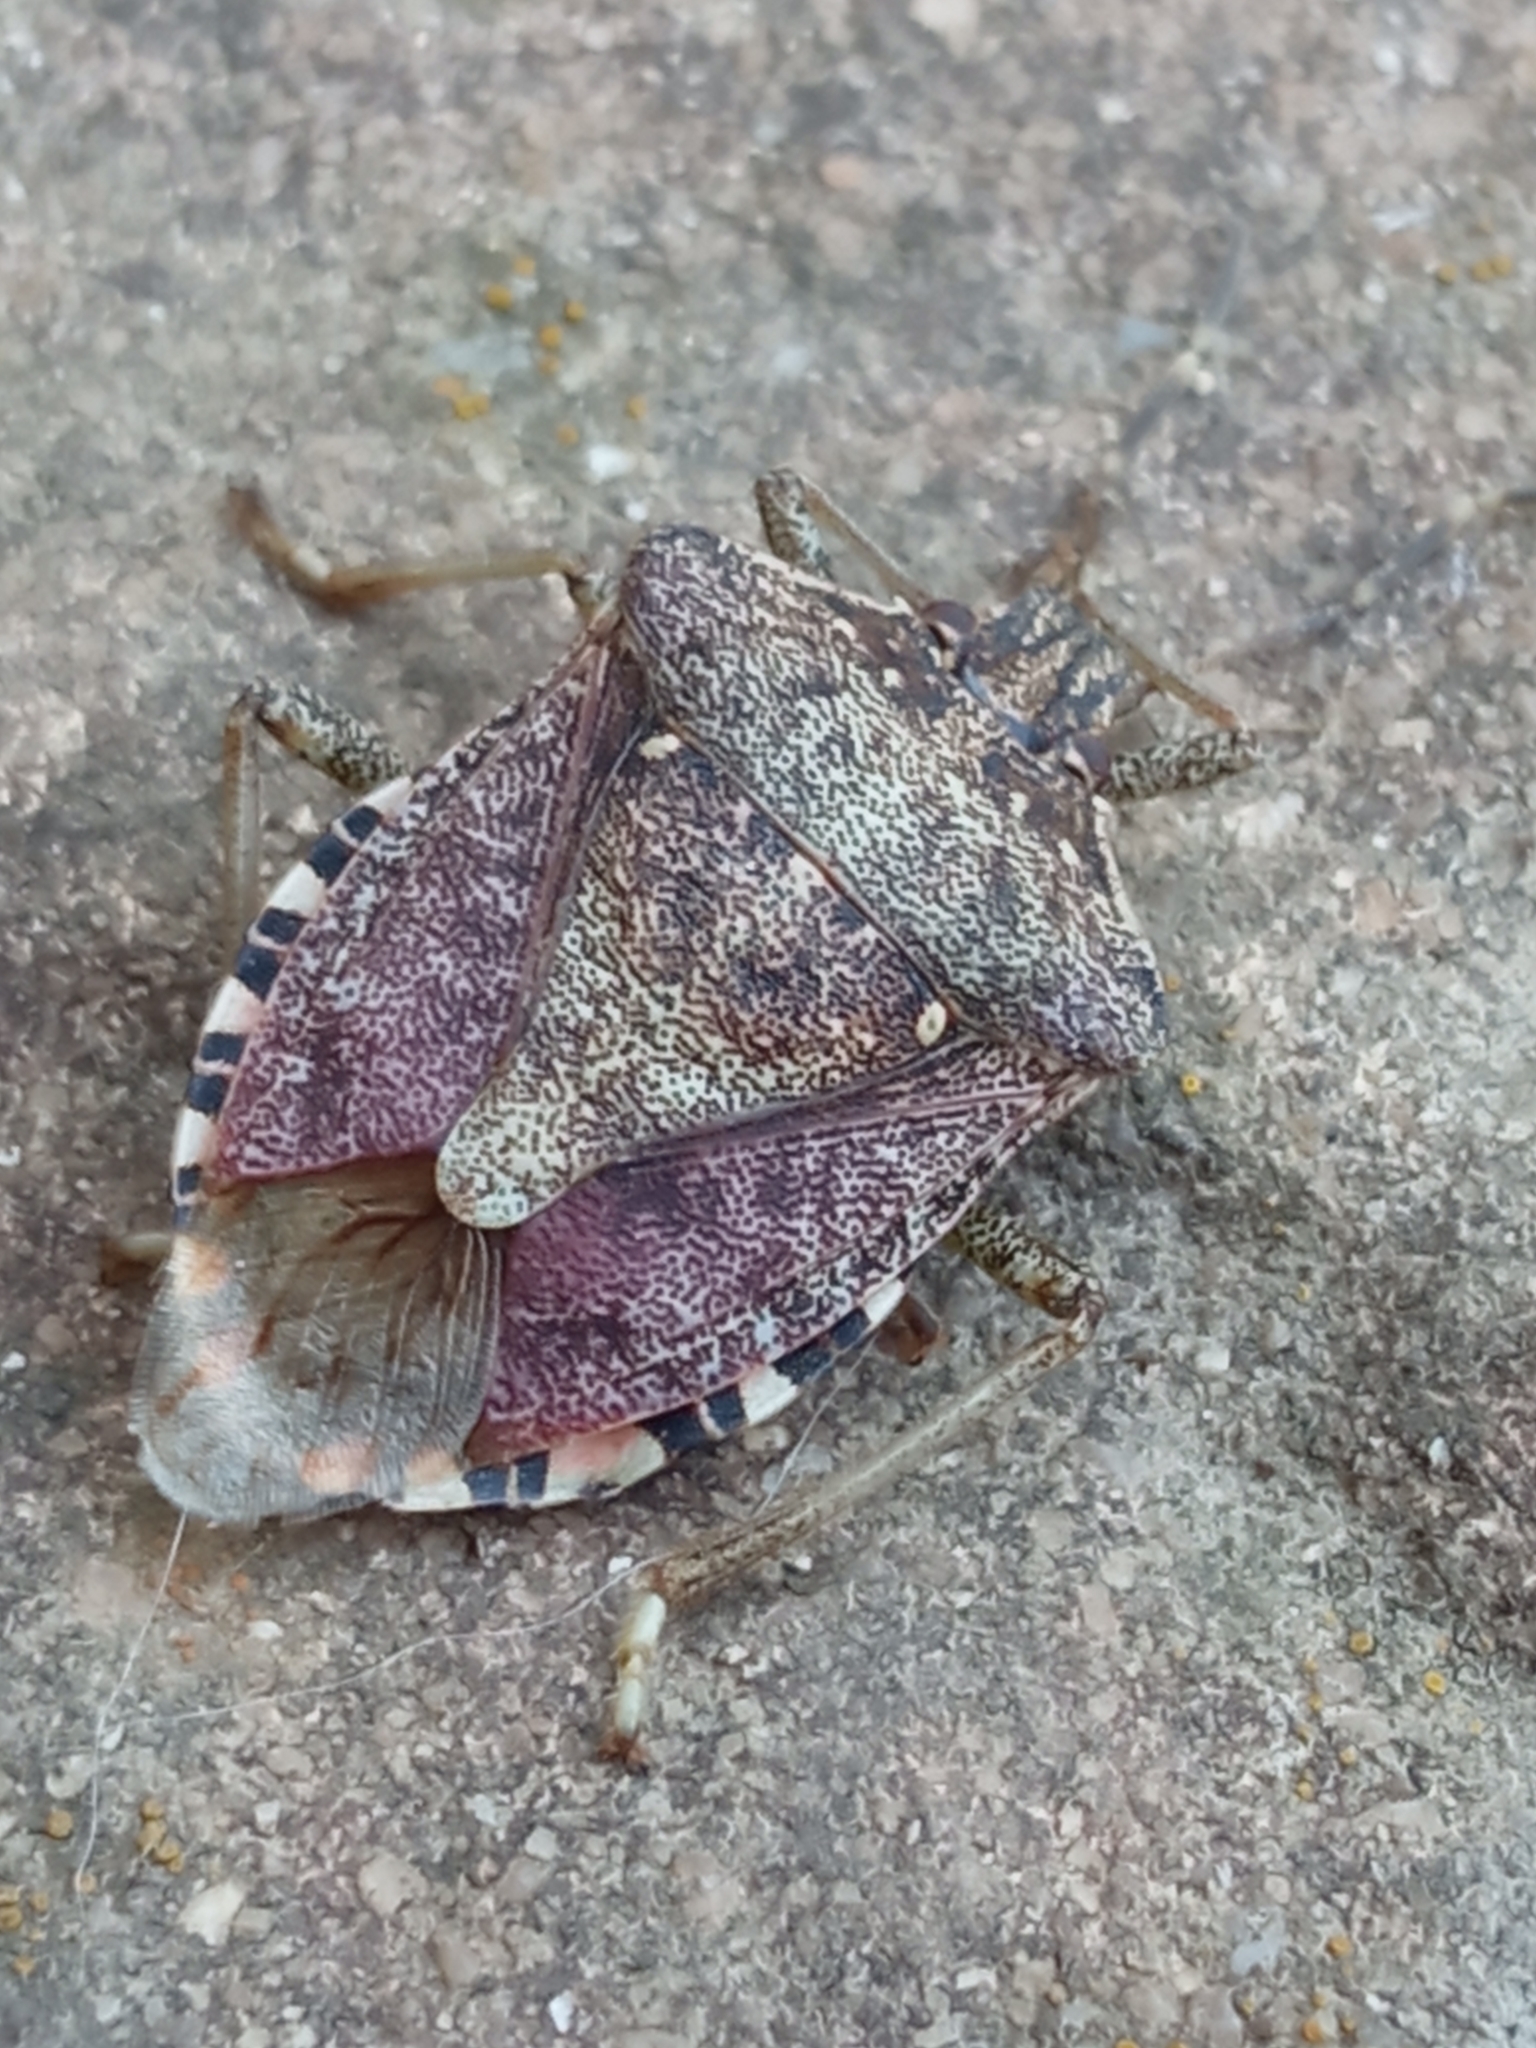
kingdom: Animalia
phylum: Arthropoda
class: Insecta
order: Hemiptera
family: Pentatomidae
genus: Halyomorpha
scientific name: Halyomorpha halys
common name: Brown marmorated stink bug
